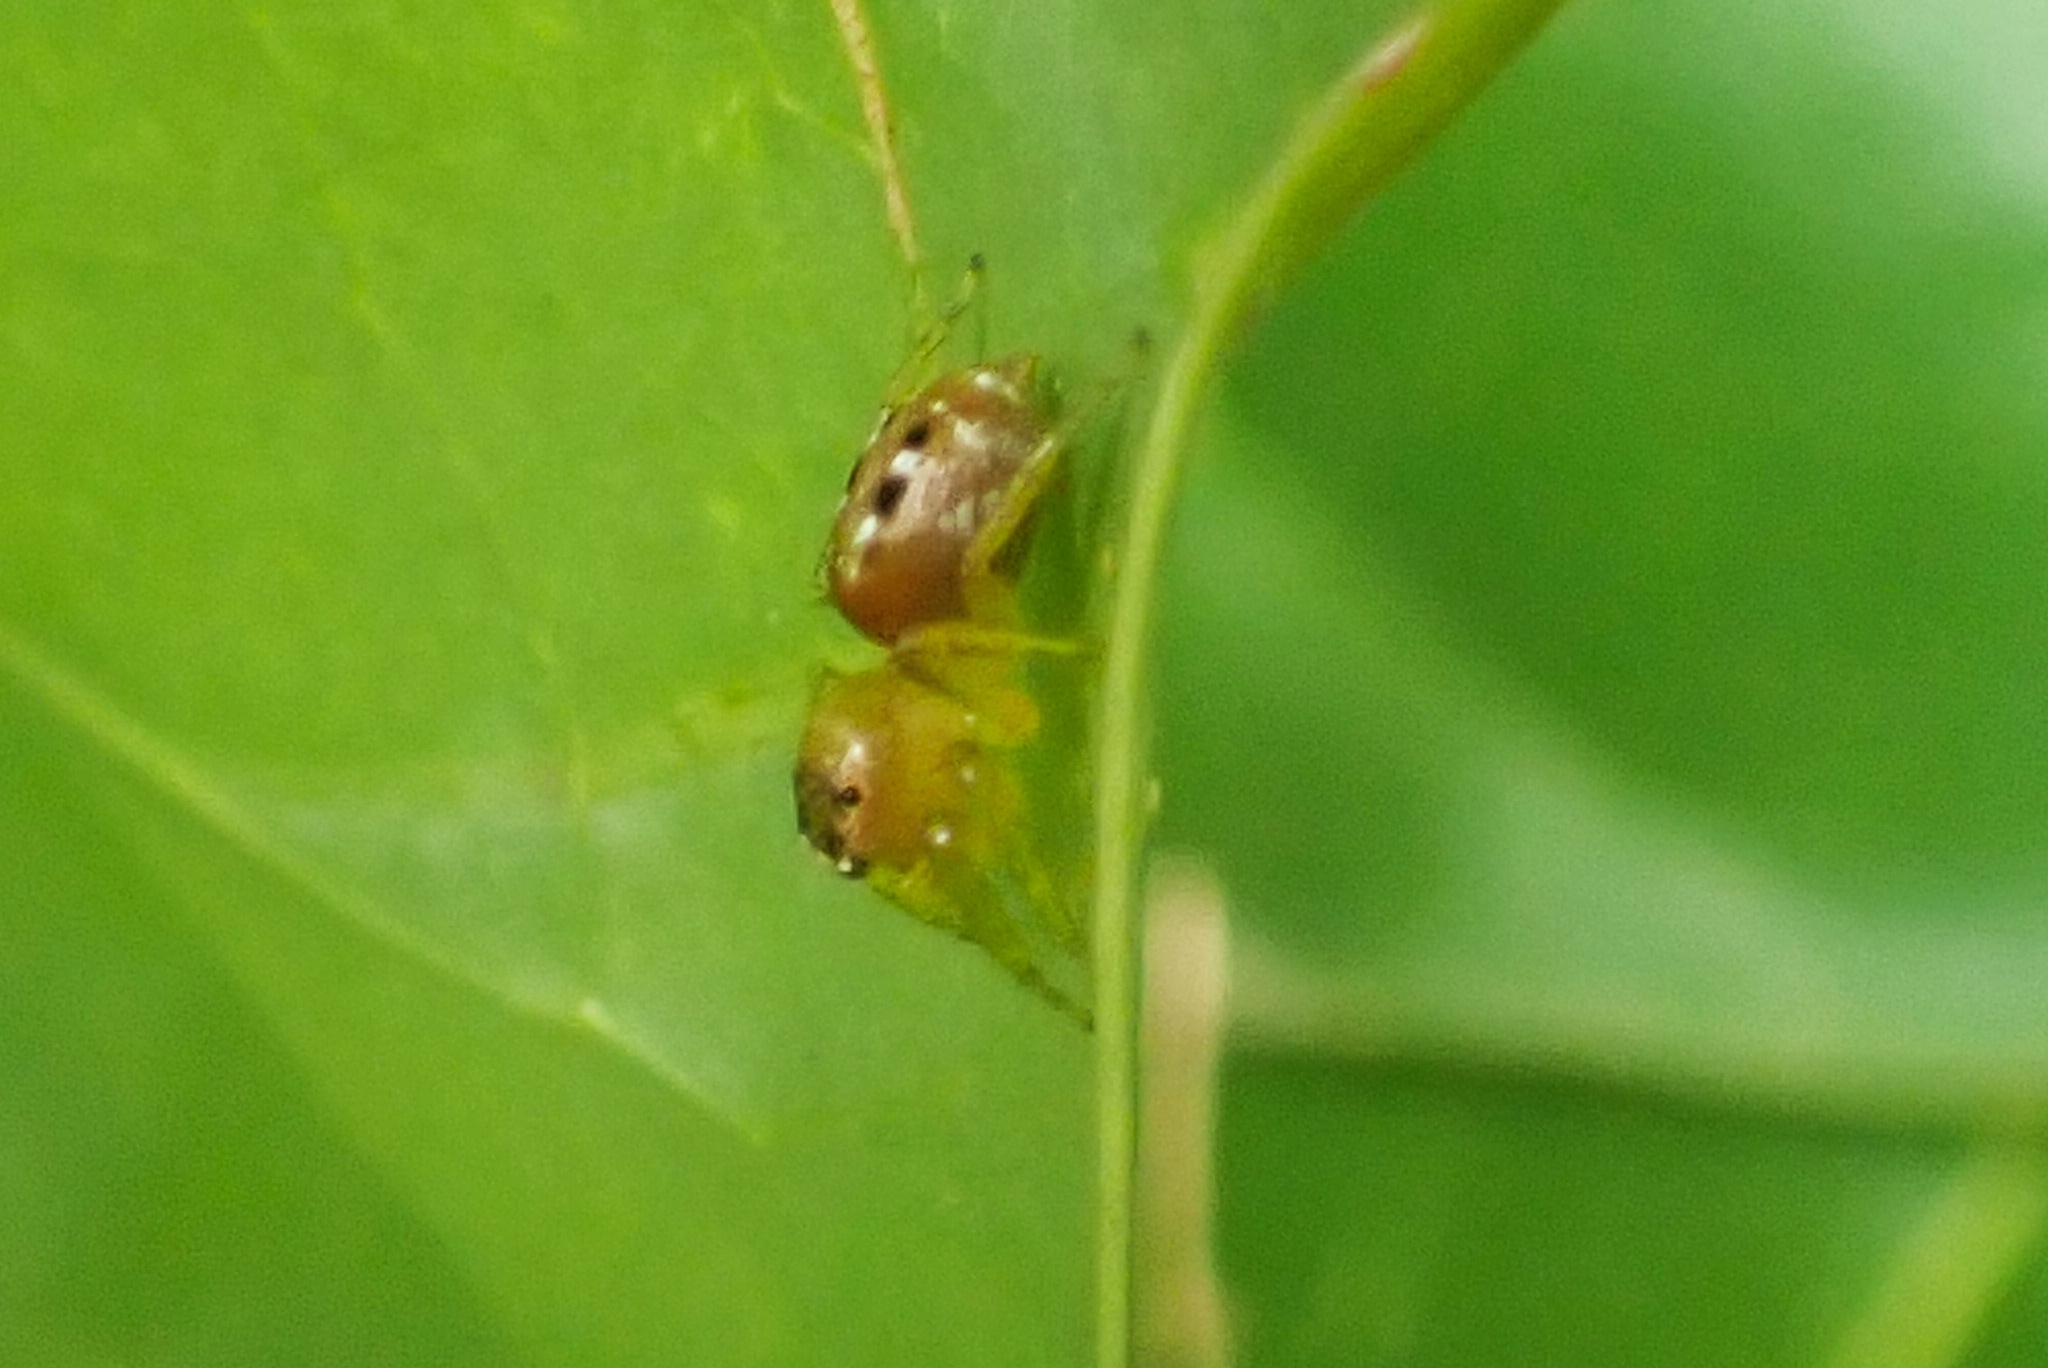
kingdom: Animalia
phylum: Arthropoda
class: Arachnida
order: Araneae
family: Salticidae
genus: Cytaea
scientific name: Cytaea dispalans
